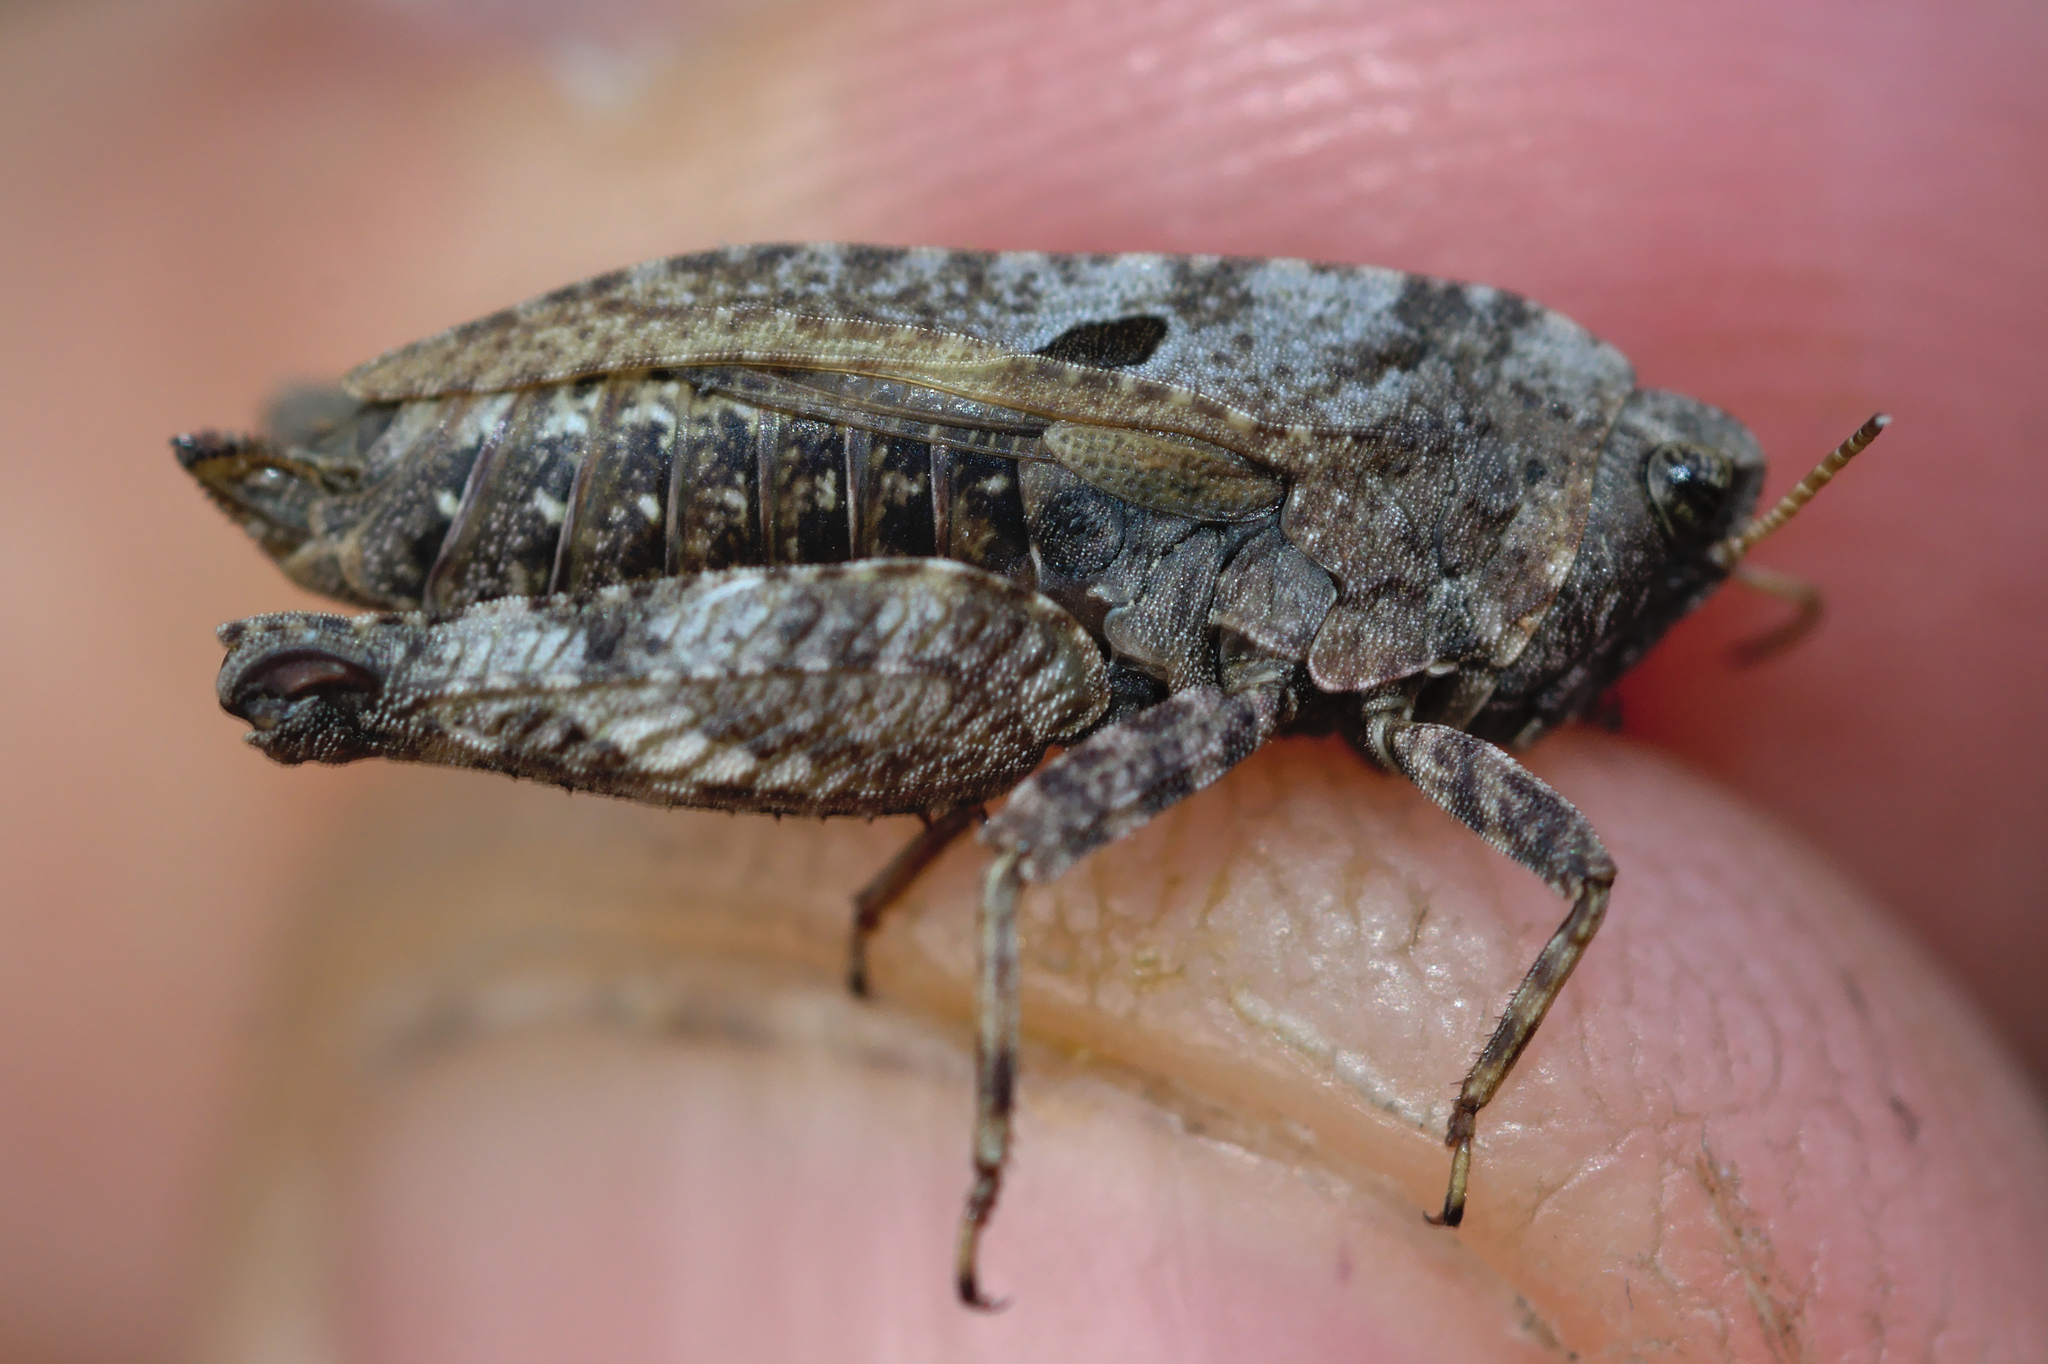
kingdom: Animalia
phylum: Arthropoda
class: Insecta
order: Orthoptera
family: Tetrigidae
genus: Tetrix
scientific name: Tetrix bipunctata
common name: Two-spotted groundhopper
